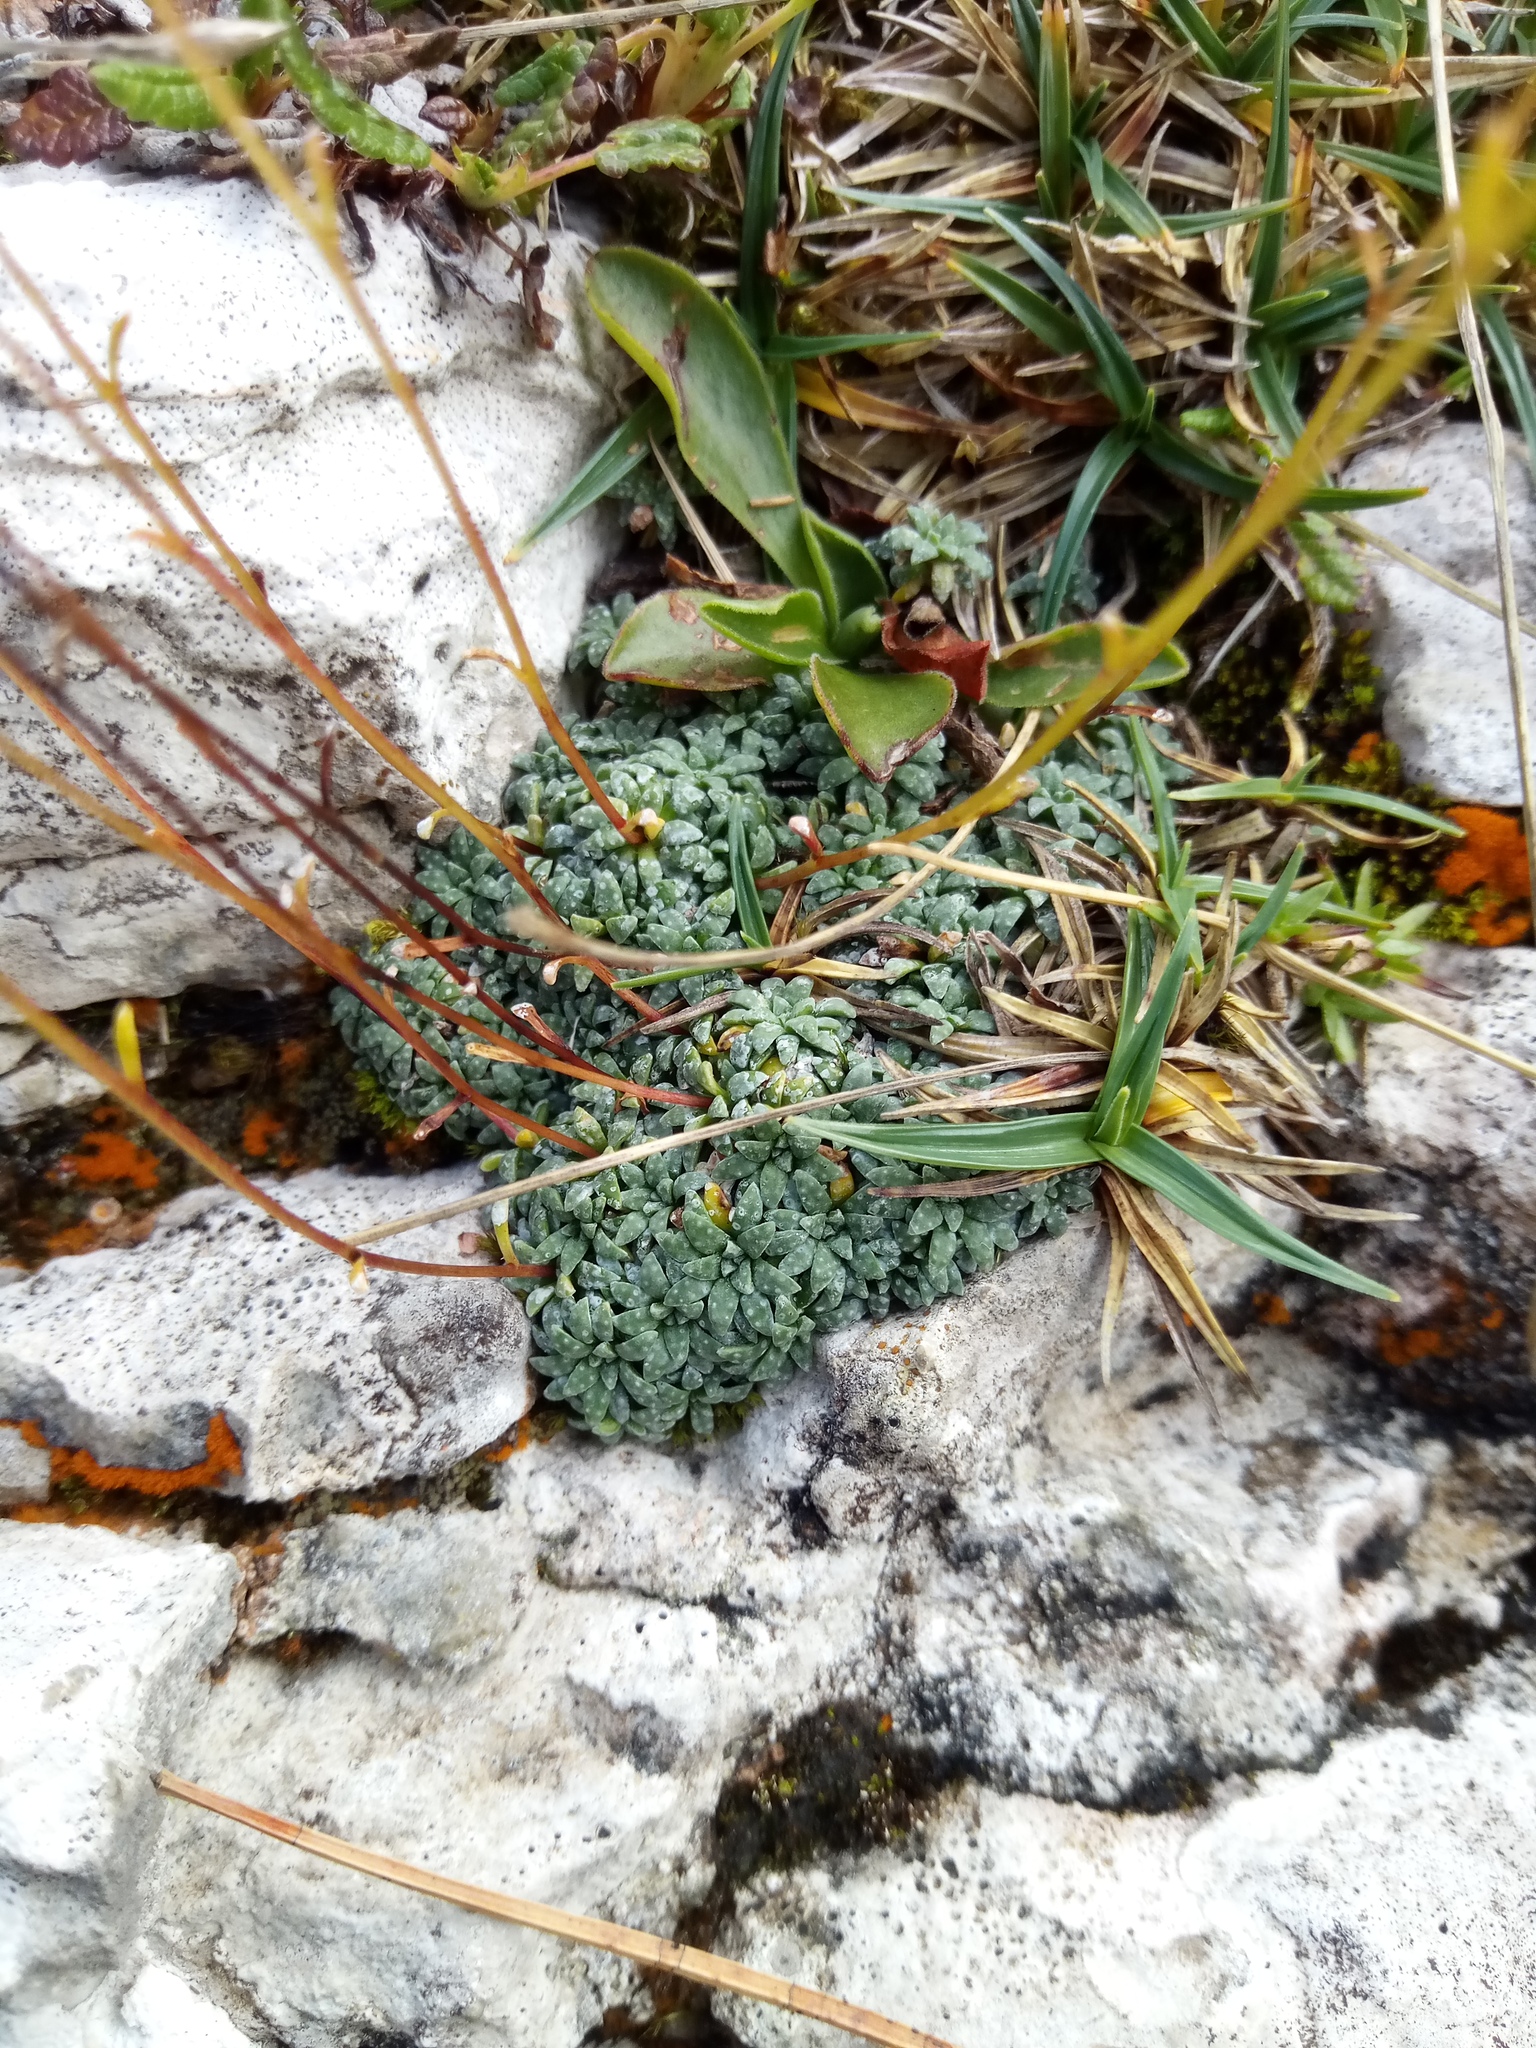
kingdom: Plantae
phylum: Tracheophyta
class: Magnoliopsida
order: Saxifragales
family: Saxifragaceae
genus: Saxifraga
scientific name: Saxifraga caesia
